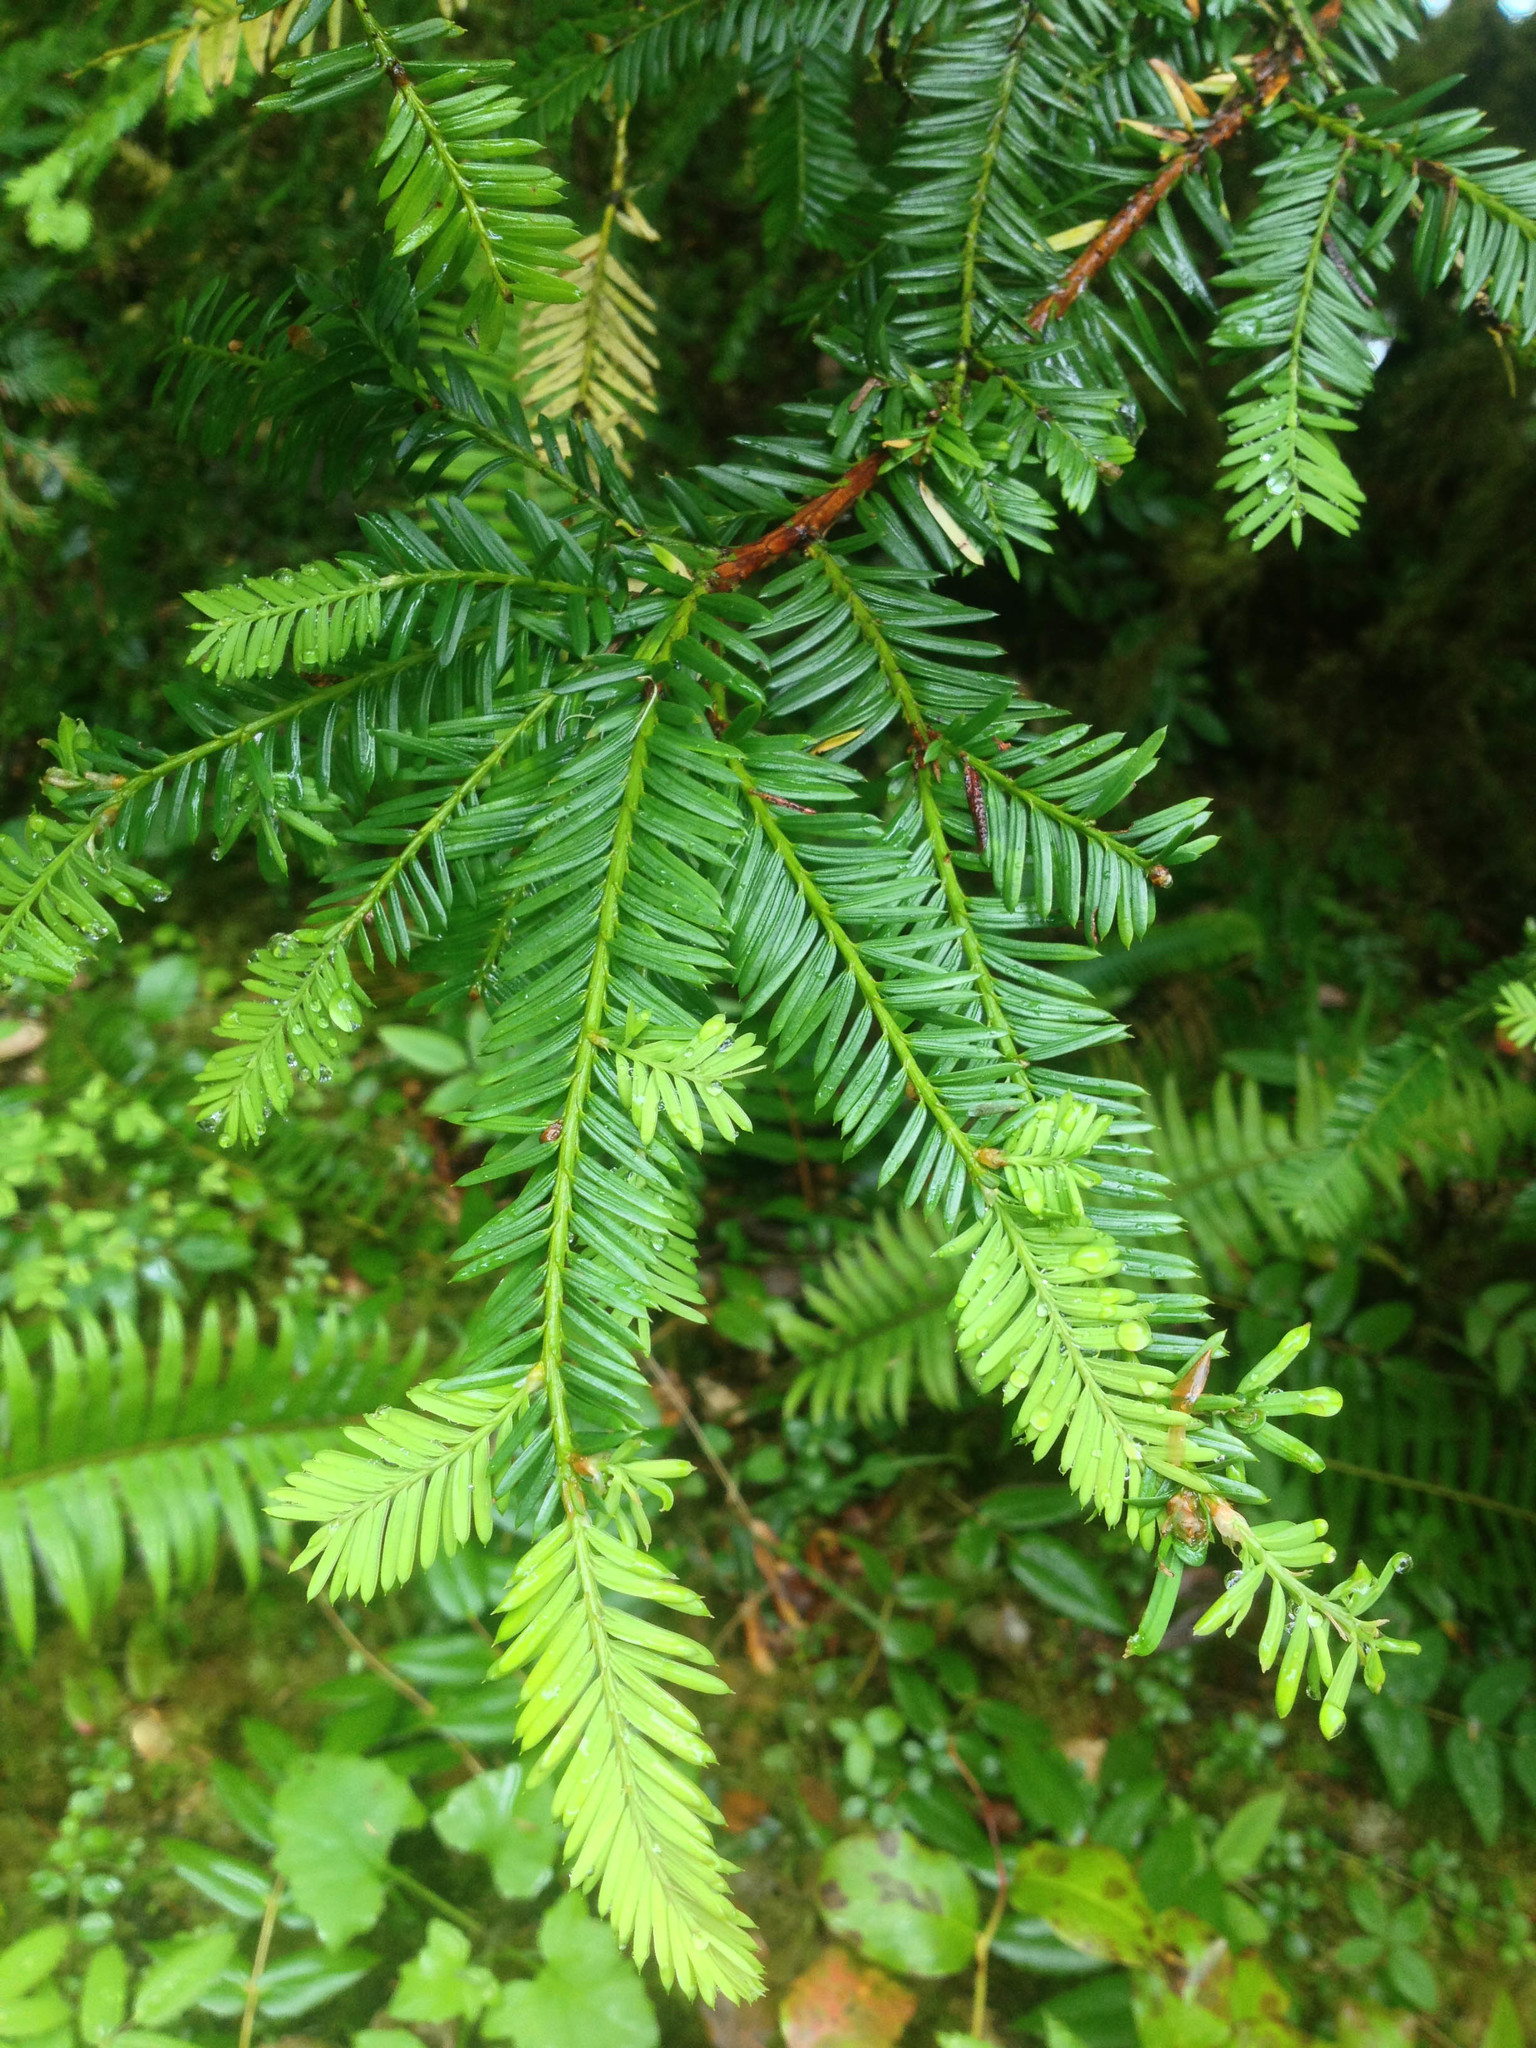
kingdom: Plantae
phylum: Tracheophyta
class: Pinopsida
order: Pinales
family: Taxaceae
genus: Taxus
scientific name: Taxus brevifolia
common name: Pacific yew
